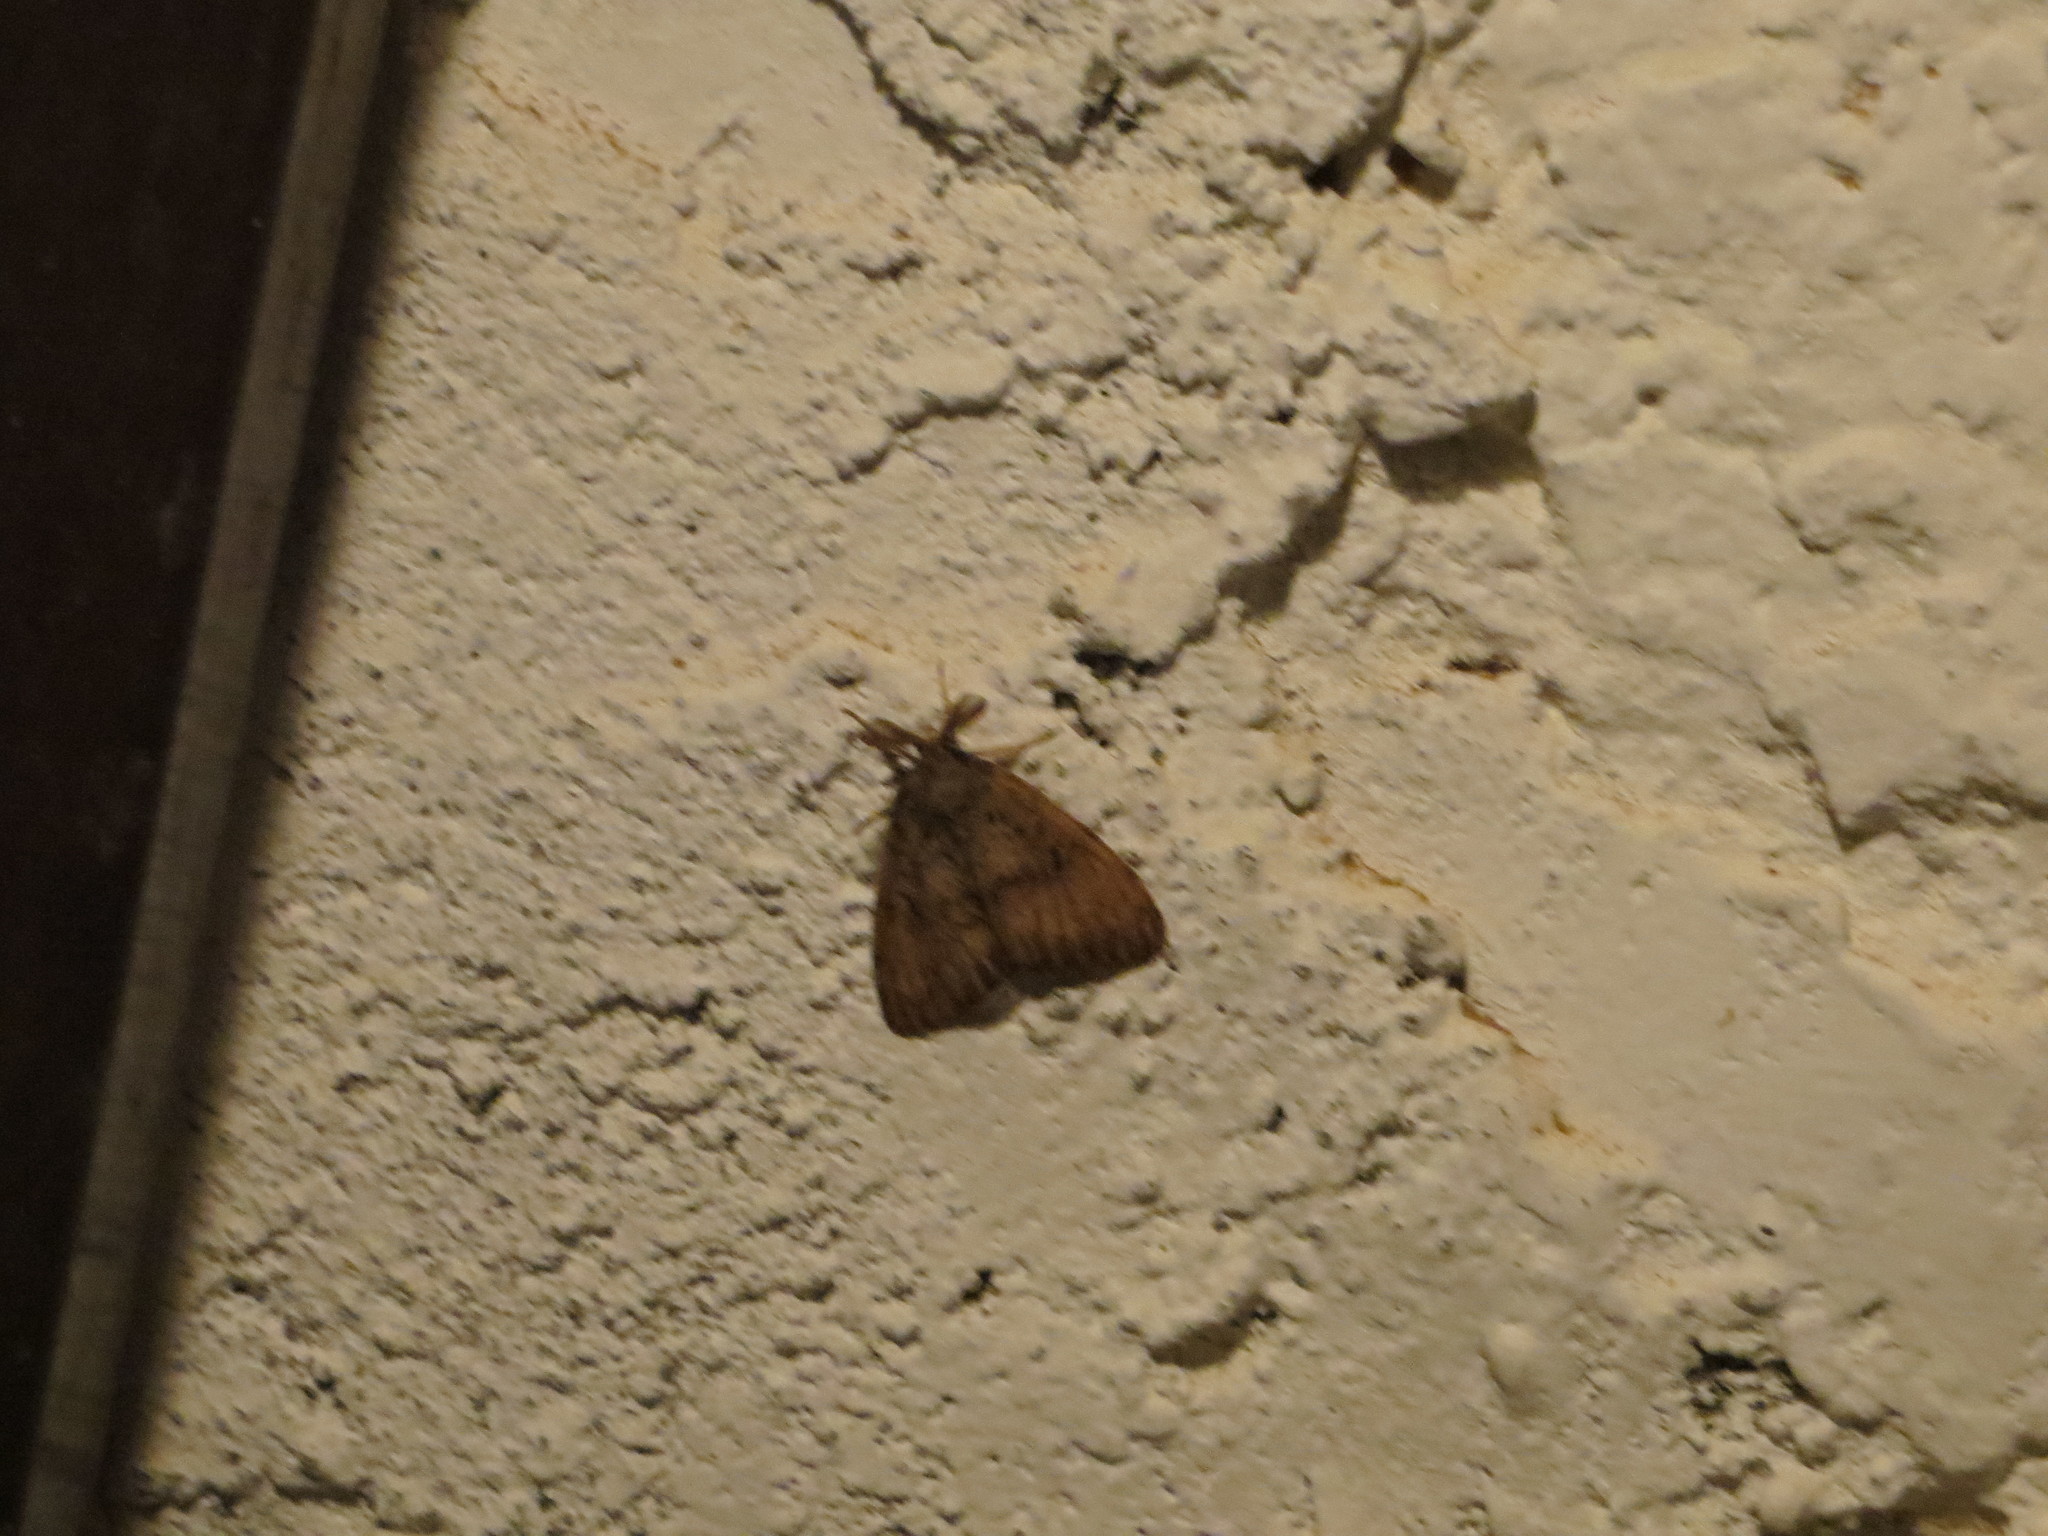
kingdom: Animalia
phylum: Arthropoda
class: Insecta
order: Lepidoptera
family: Erebidae
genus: Lymantria
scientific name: Lymantria dispar
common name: Gypsy moth
